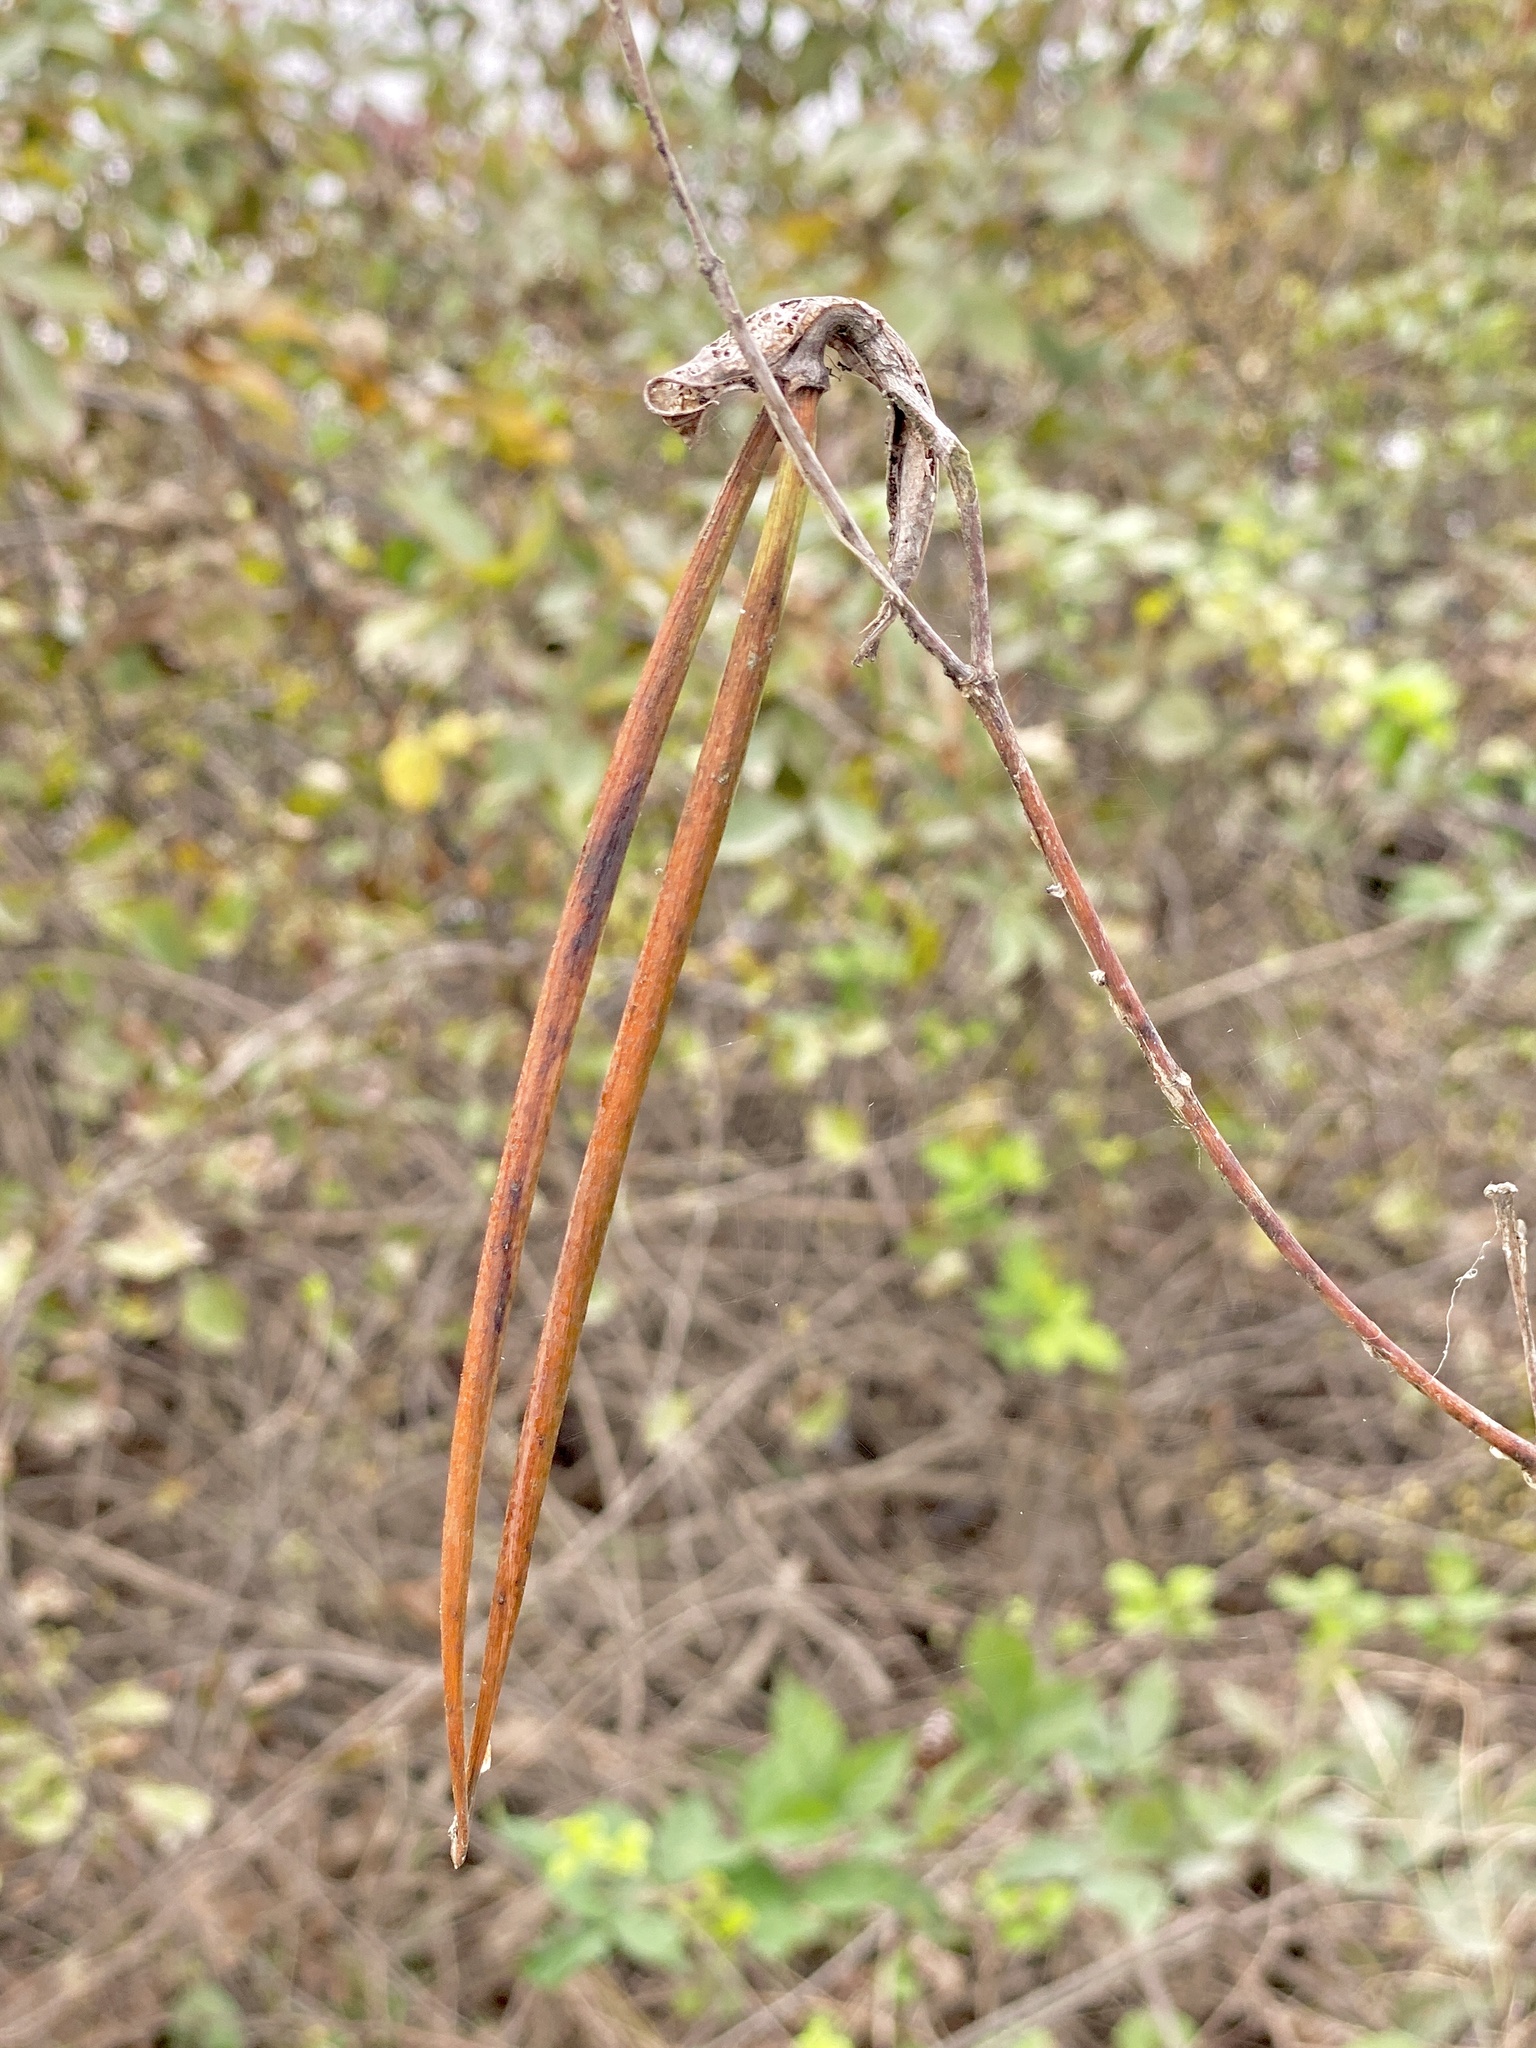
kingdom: Plantae
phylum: Tracheophyta
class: Magnoliopsida
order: Gentianales
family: Apocynaceae
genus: Apocynum
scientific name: Apocynum cannabinum
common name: Hemp dogbane
